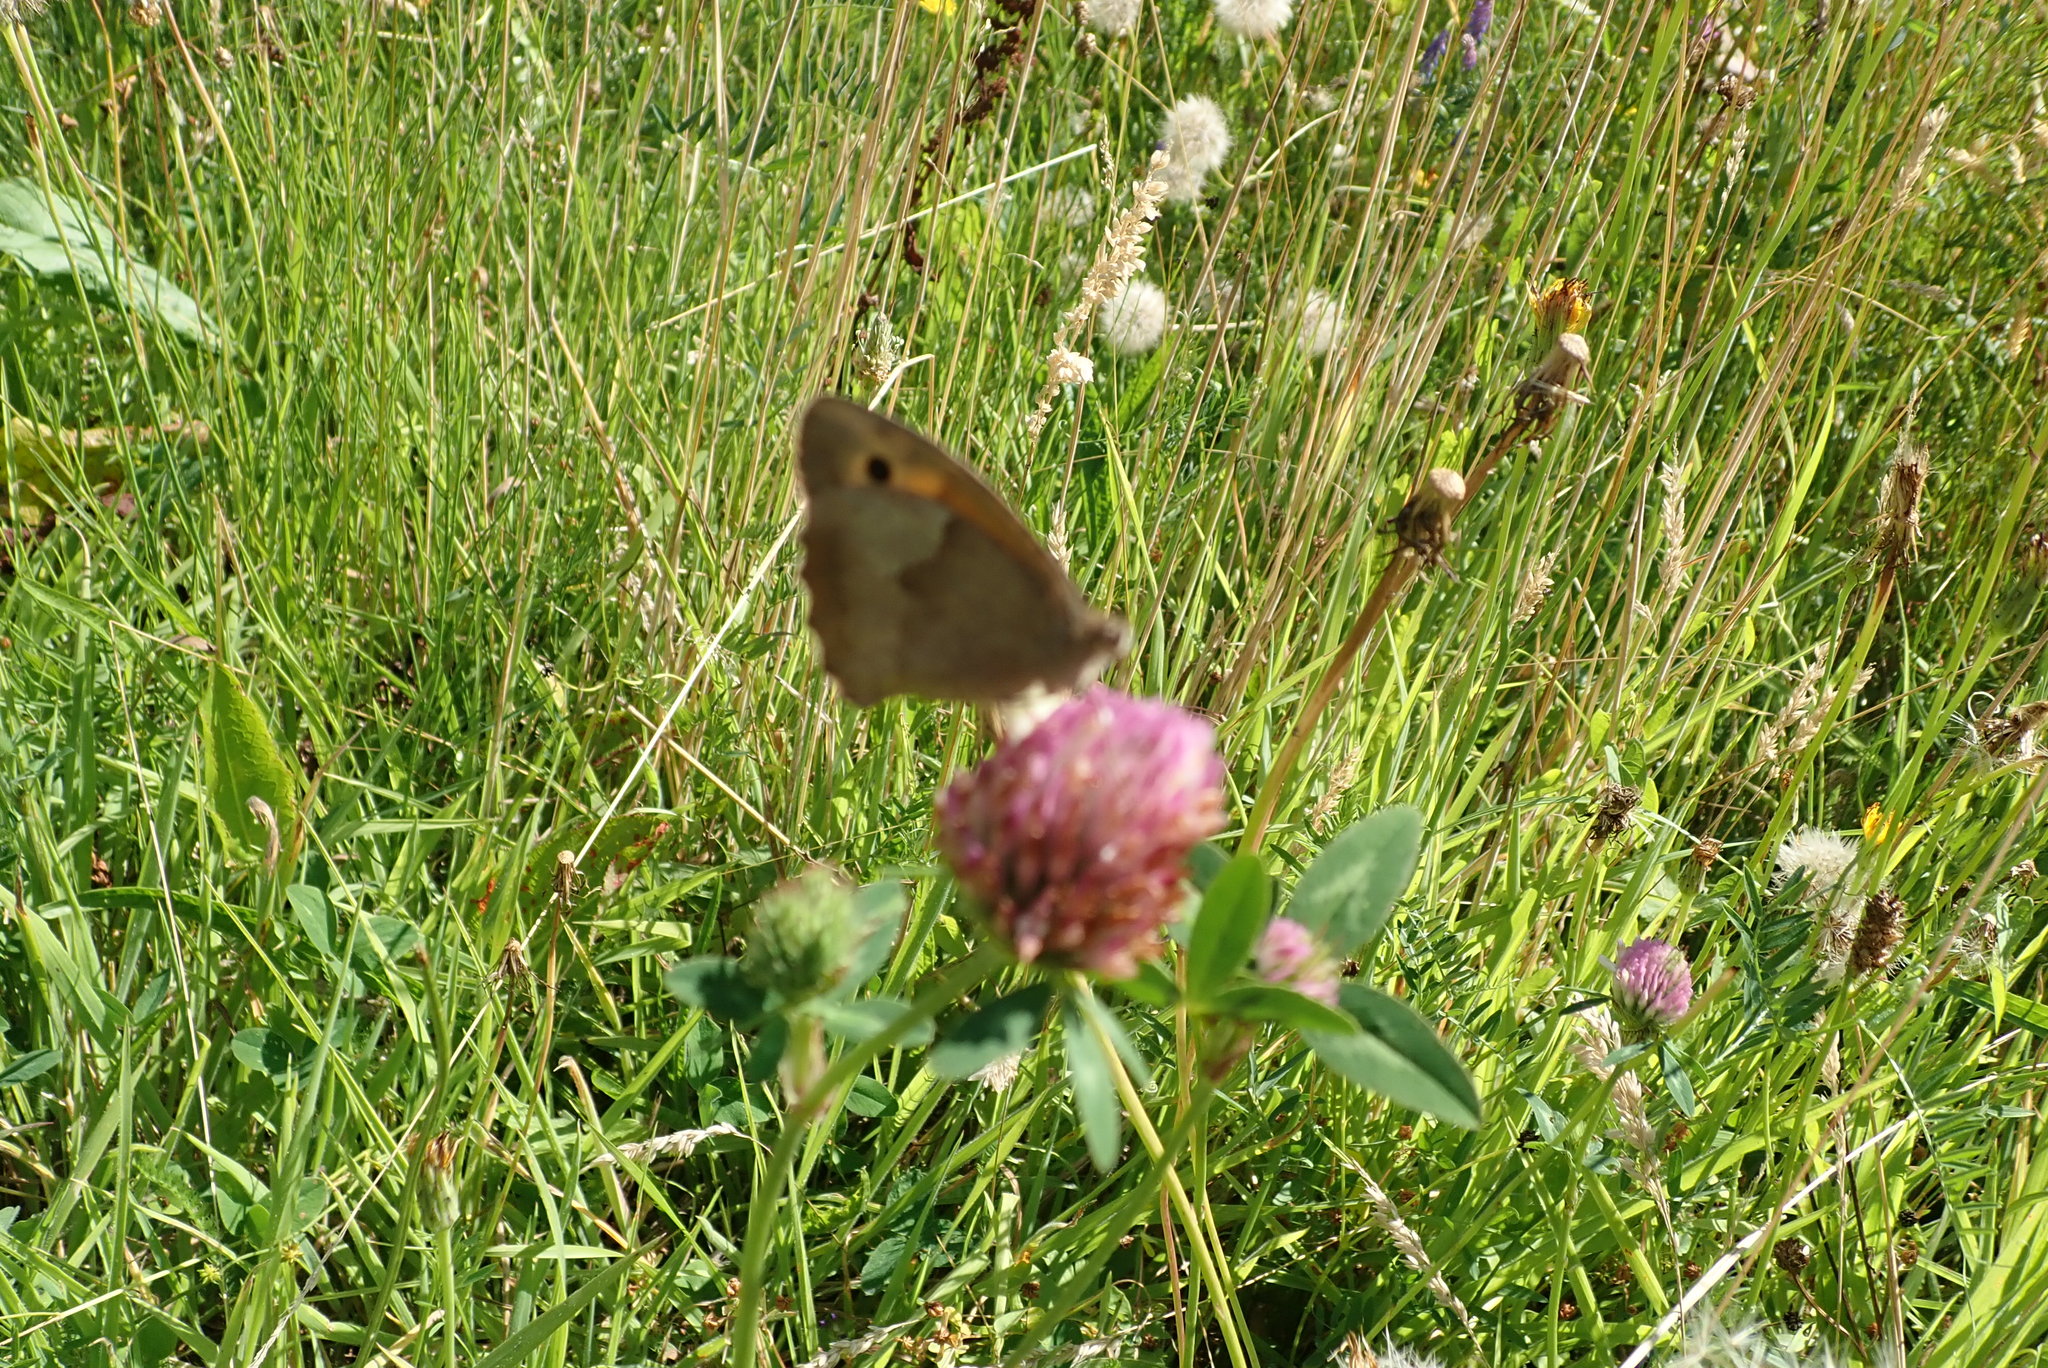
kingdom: Animalia
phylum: Arthropoda
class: Insecta
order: Lepidoptera
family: Nymphalidae
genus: Maniola
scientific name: Maniola jurtina
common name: Meadow brown
